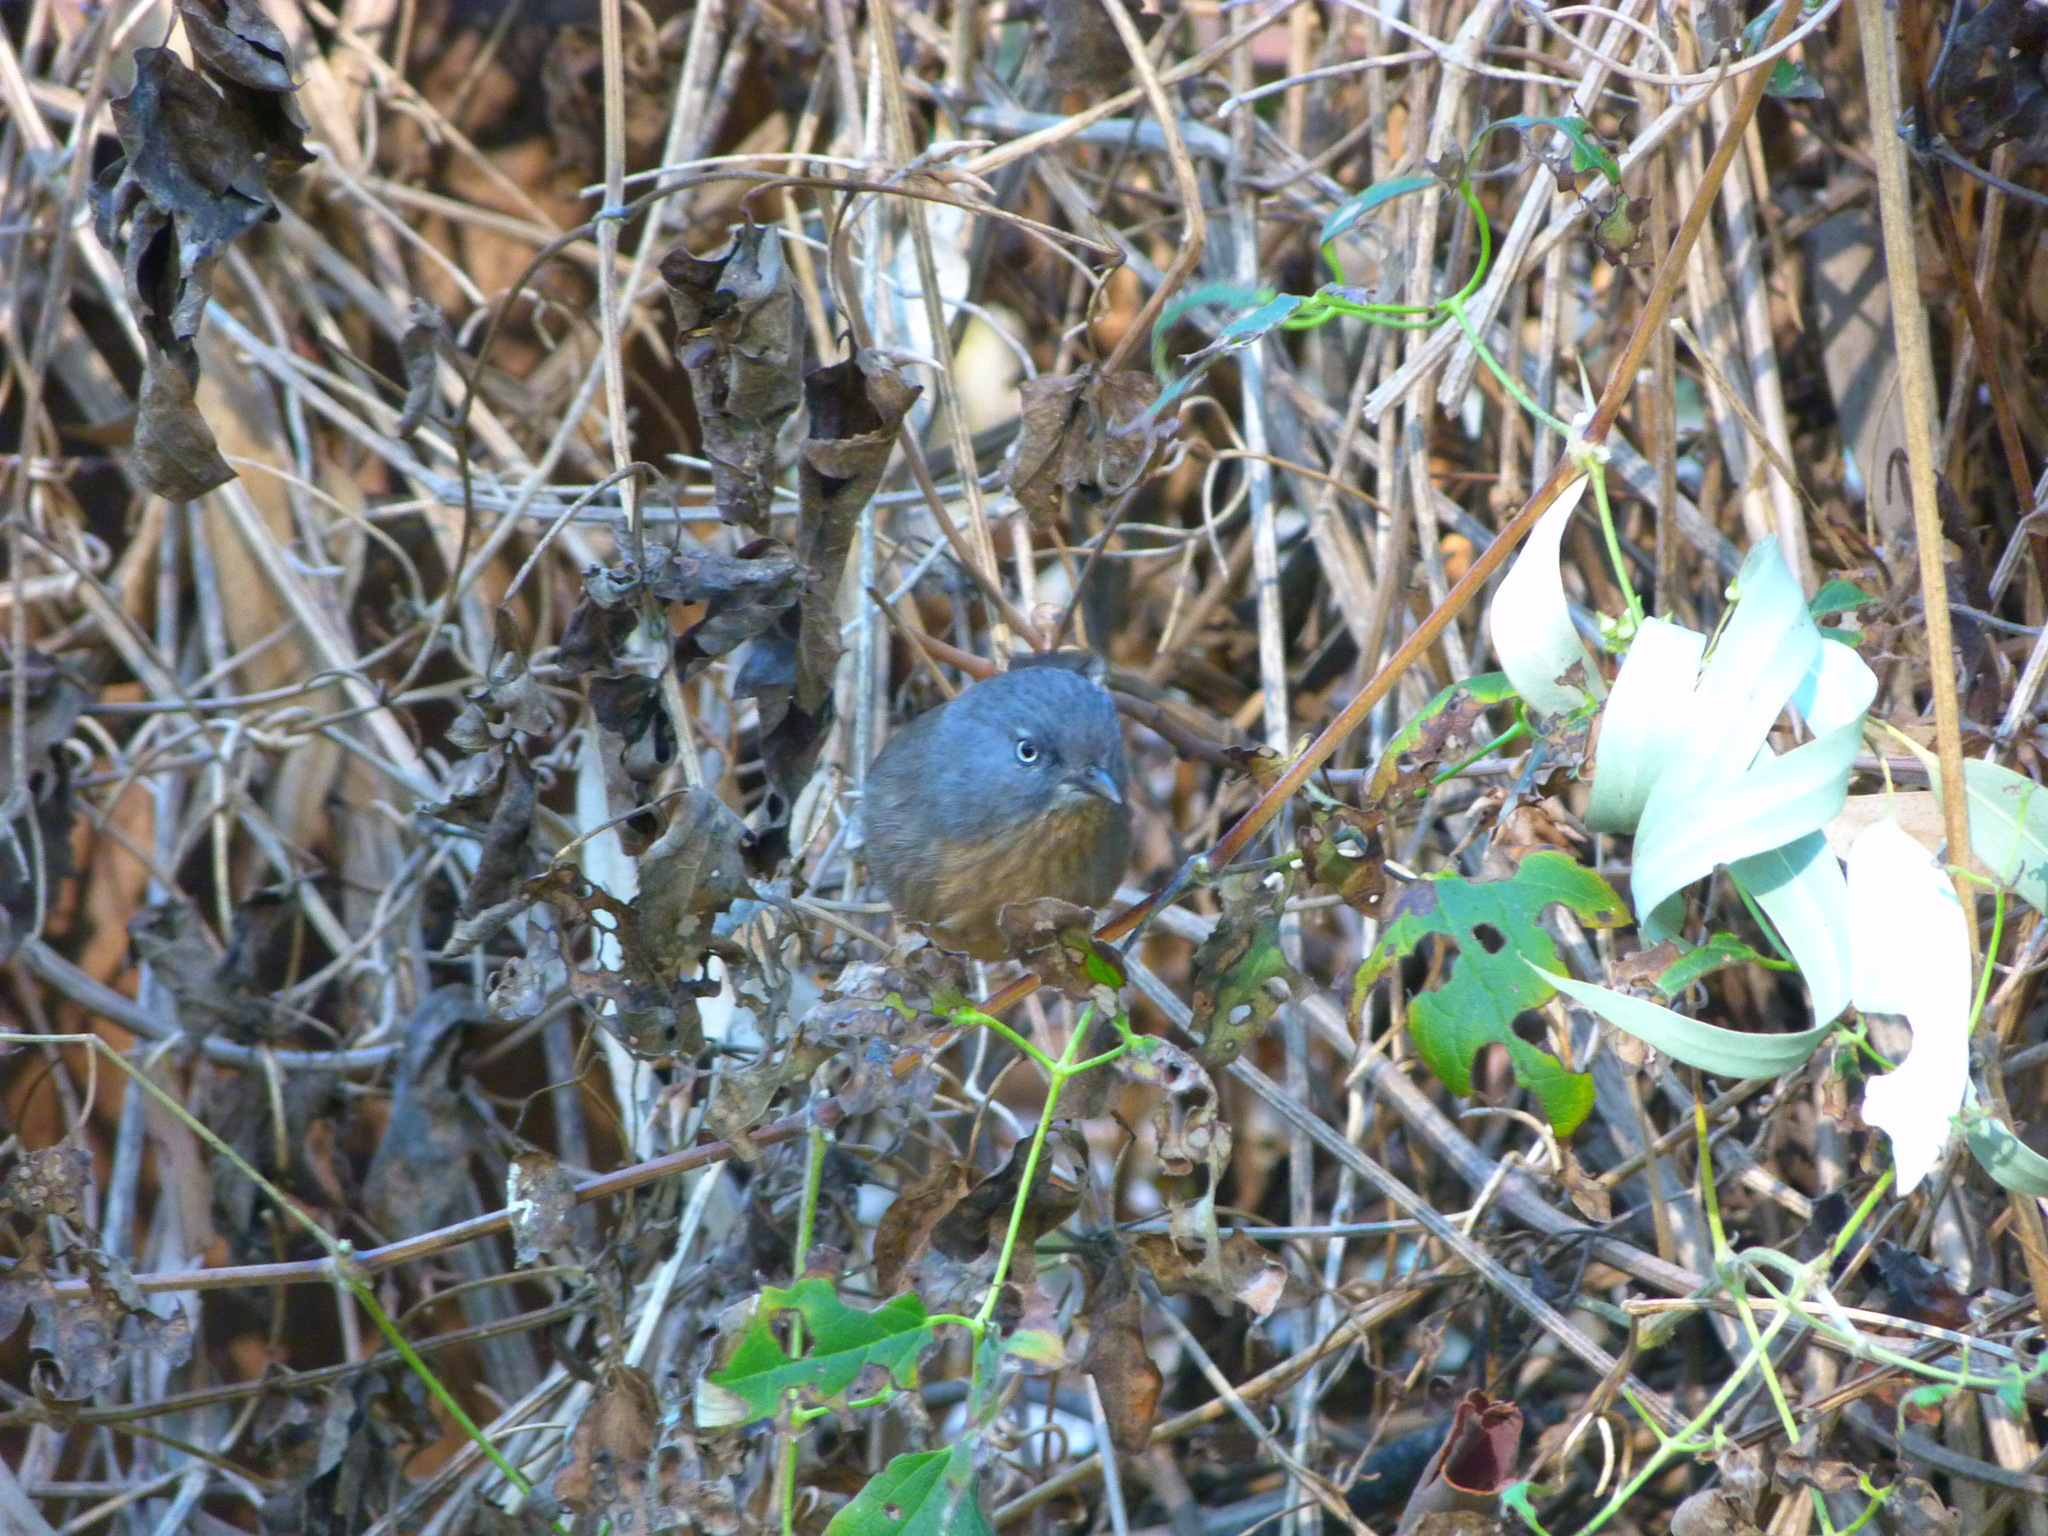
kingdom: Animalia
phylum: Chordata
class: Aves
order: Passeriformes
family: Sylviidae
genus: Chamaea
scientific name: Chamaea fasciata
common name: Wrentit
